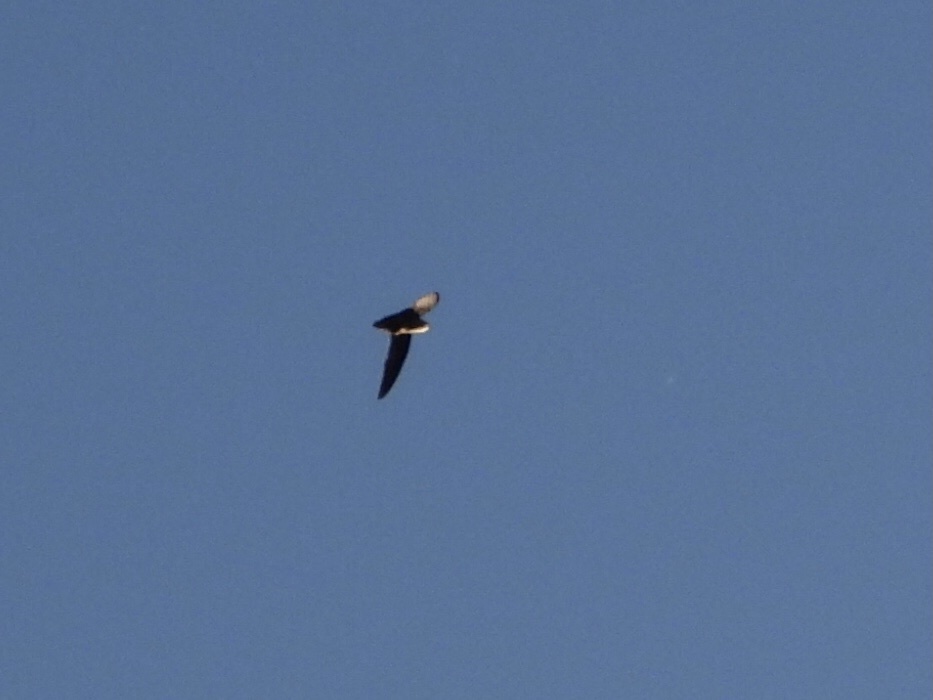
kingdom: Animalia
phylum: Chordata
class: Aves
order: Apodiformes
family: Apodidae
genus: Chaetura
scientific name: Chaetura vauxi
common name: Vaux's swift
